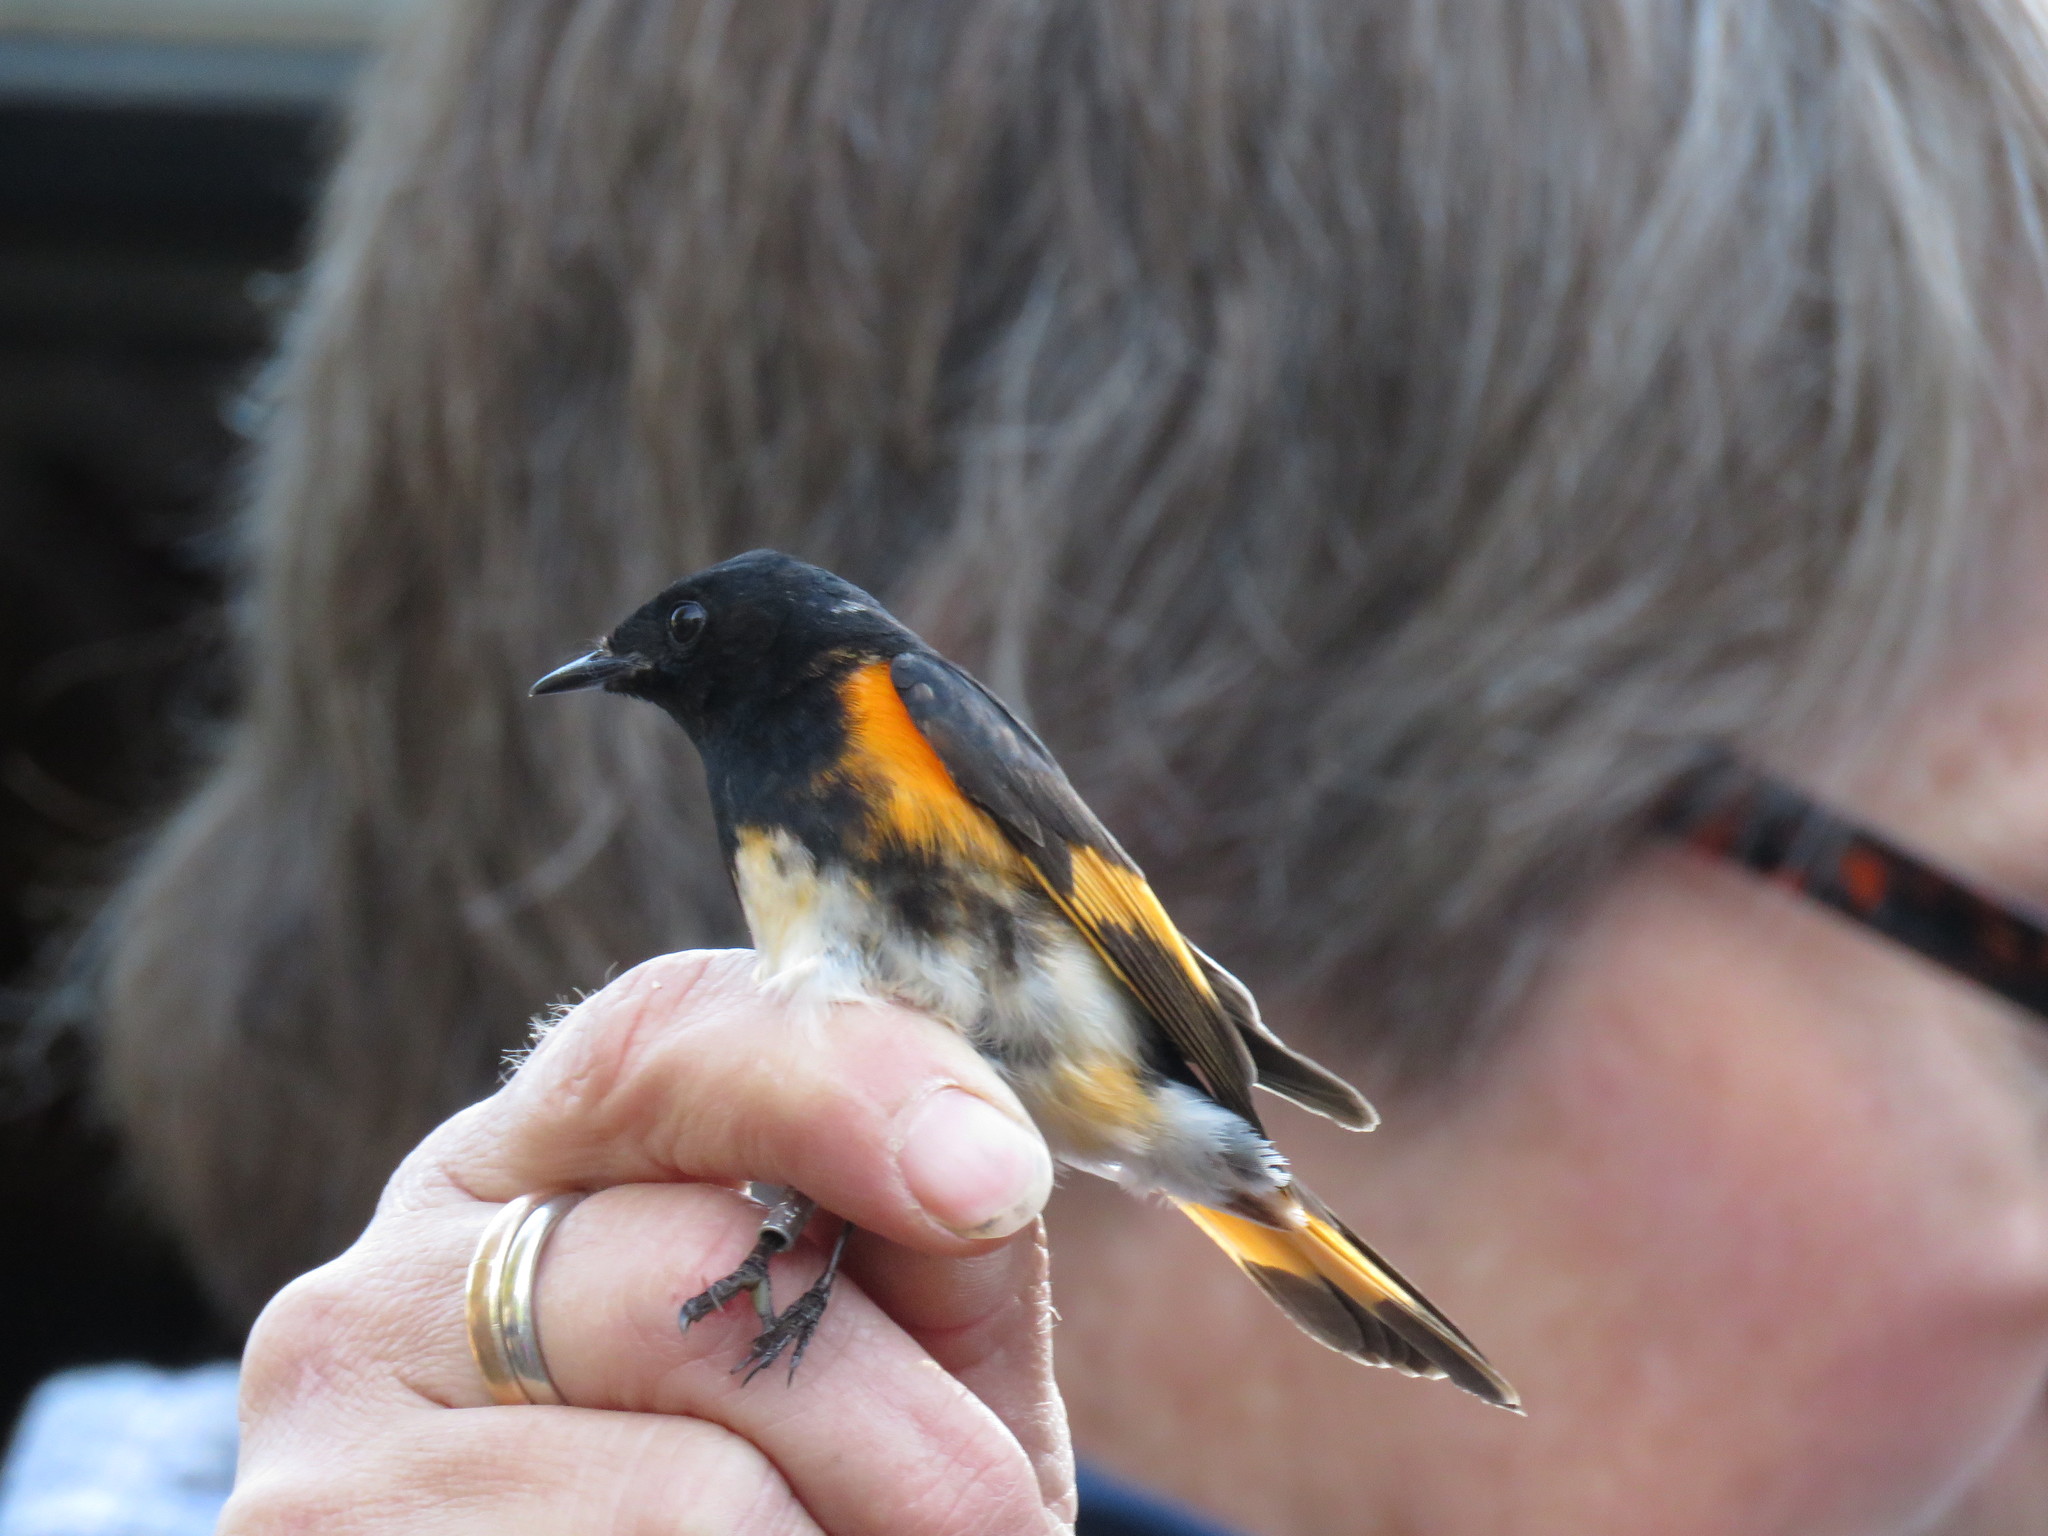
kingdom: Animalia
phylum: Chordata
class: Aves
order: Passeriformes
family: Parulidae
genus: Setophaga
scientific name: Setophaga ruticilla
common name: American redstart
